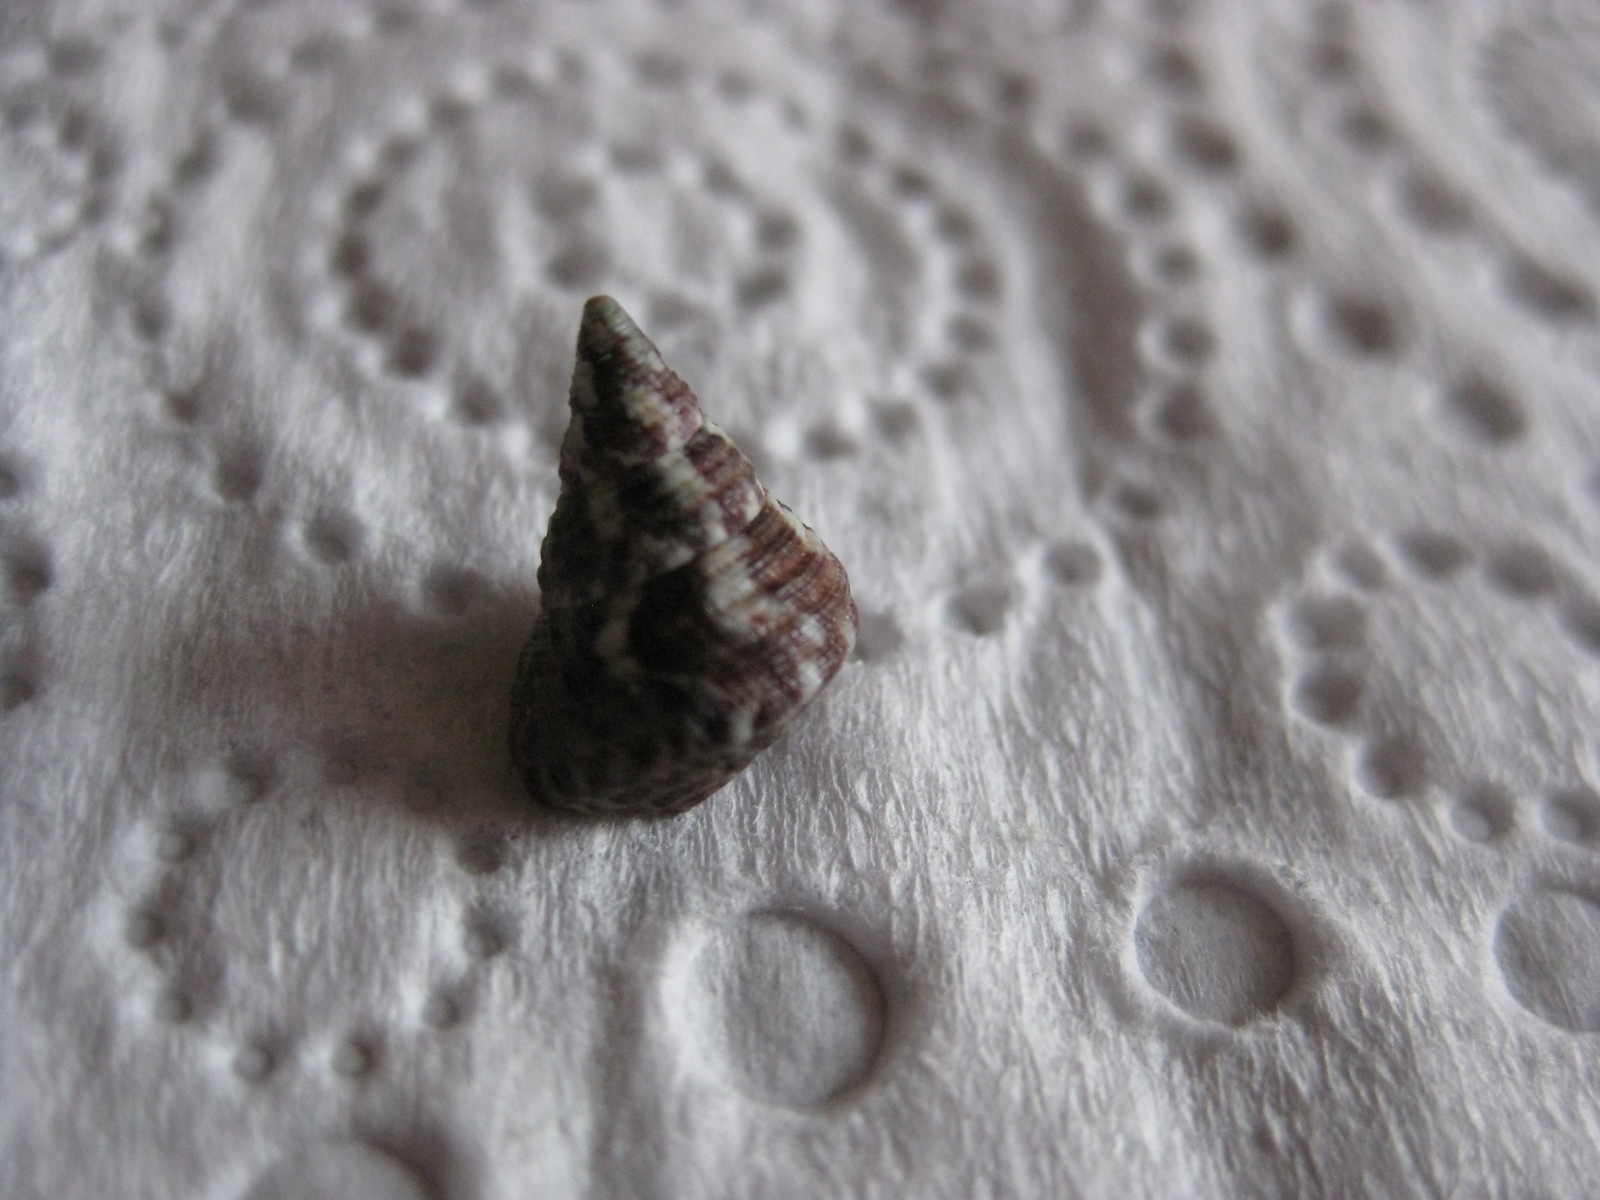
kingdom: Animalia
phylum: Mollusca
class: Gastropoda
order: Trochida
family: Trochidae
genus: Micrelenchus
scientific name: Micrelenchus purpureus
